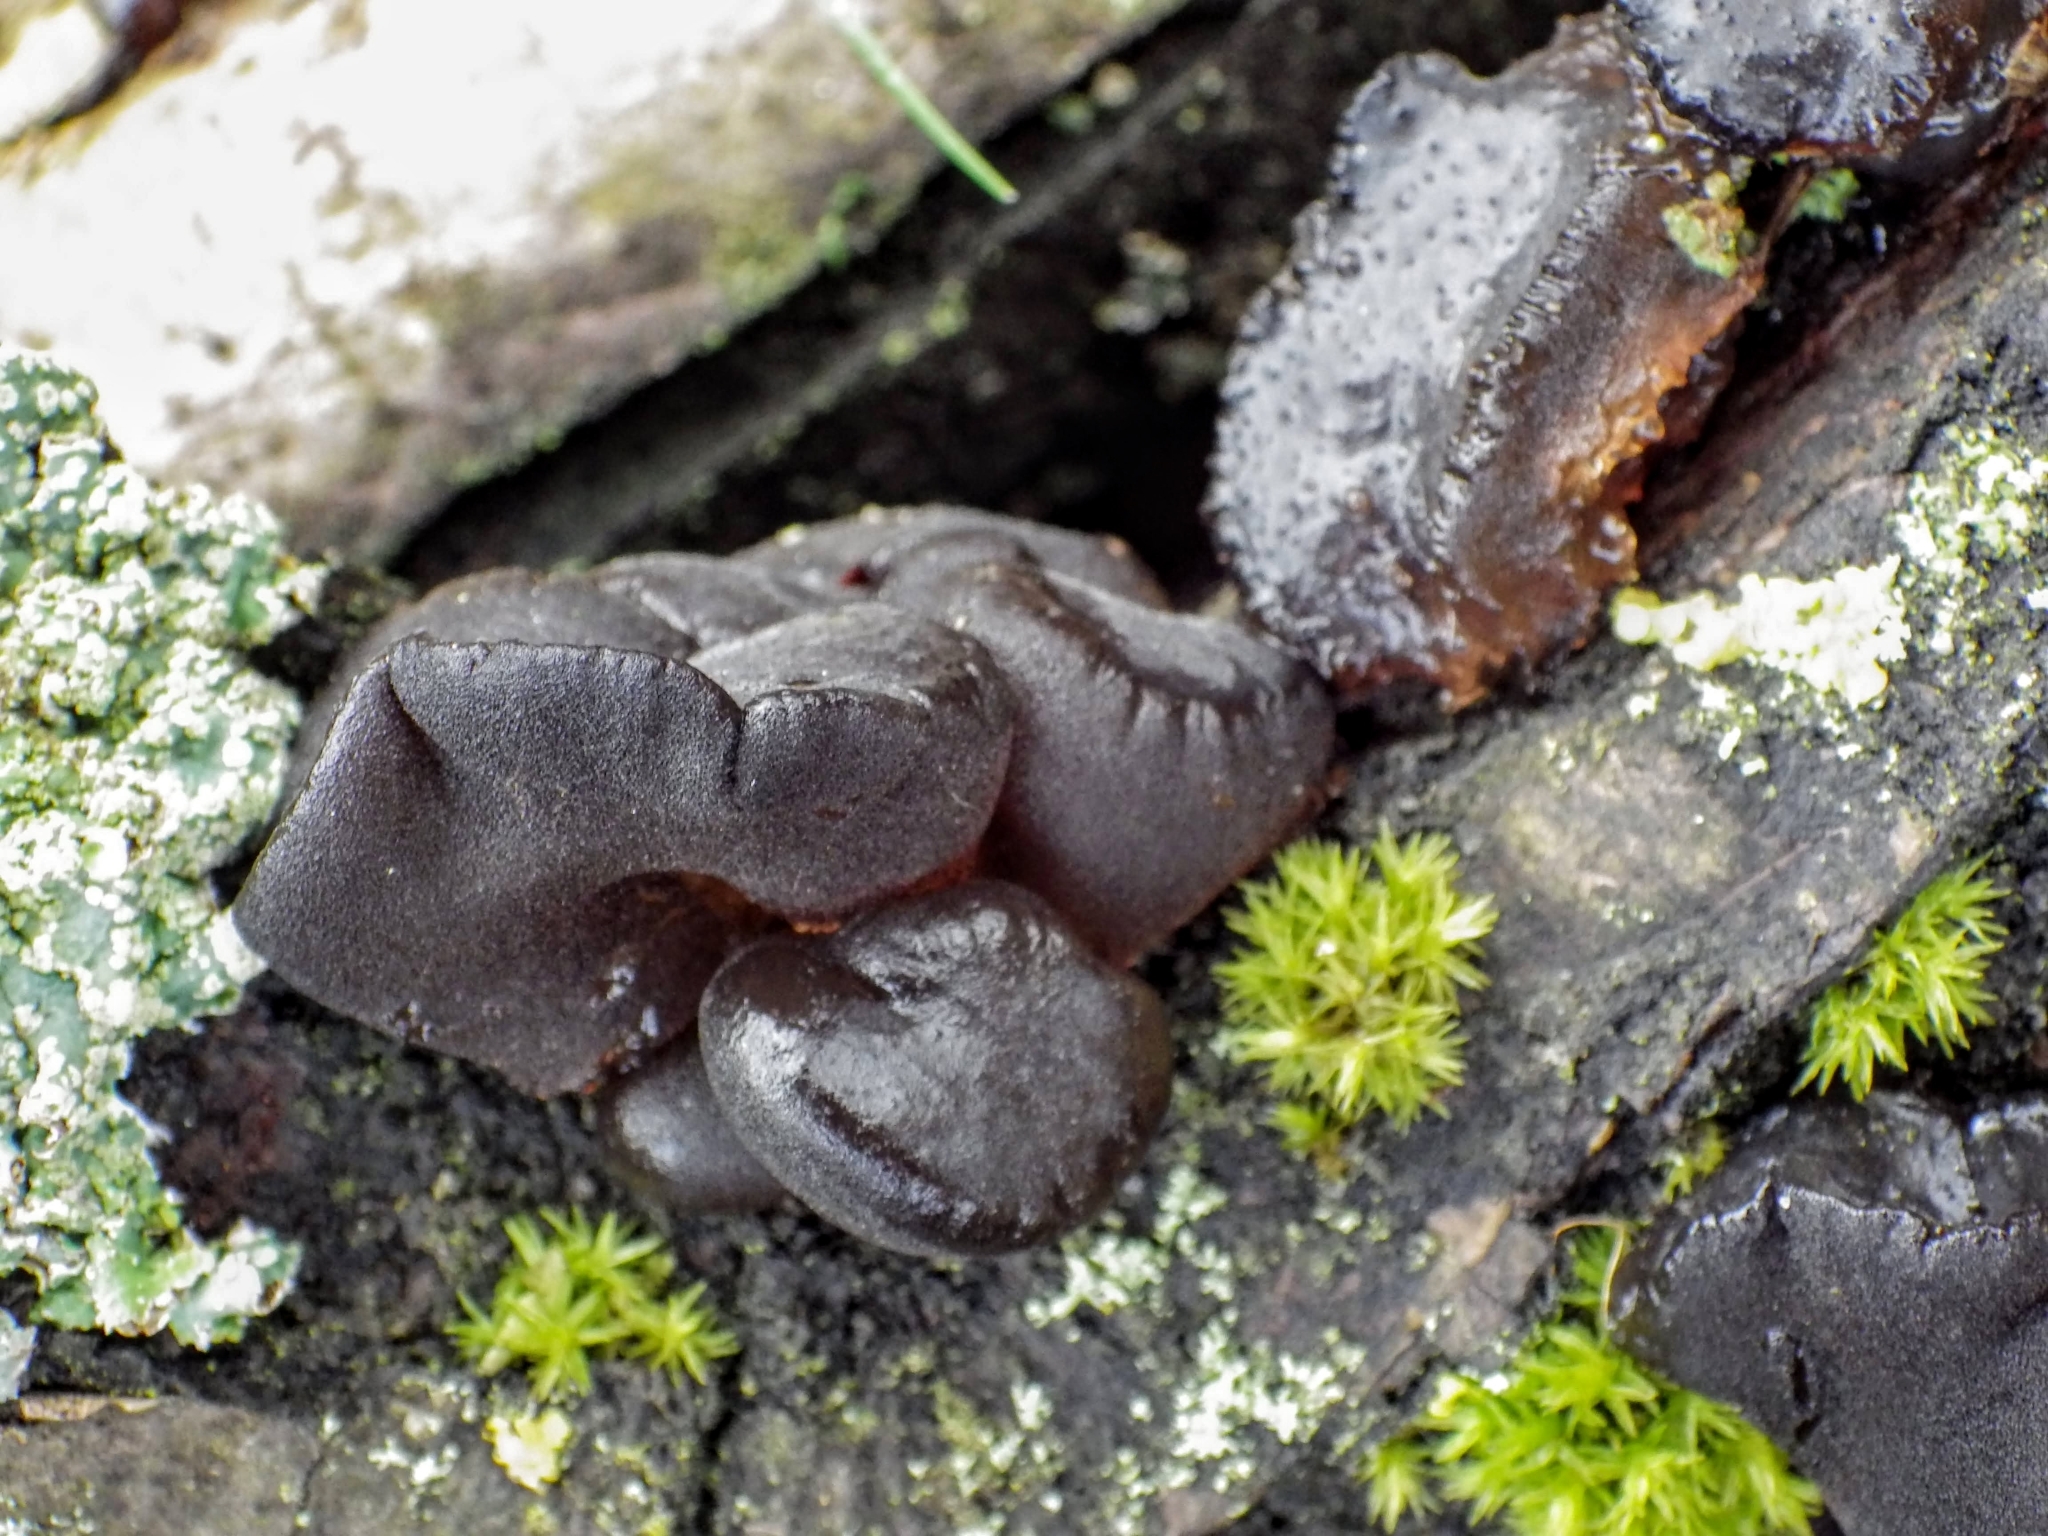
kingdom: Fungi
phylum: Basidiomycota
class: Agaricomycetes
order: Auriculariales
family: Auriculariaceae
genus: Exidia
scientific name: Exidia glandulosa
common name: Witches' butter
